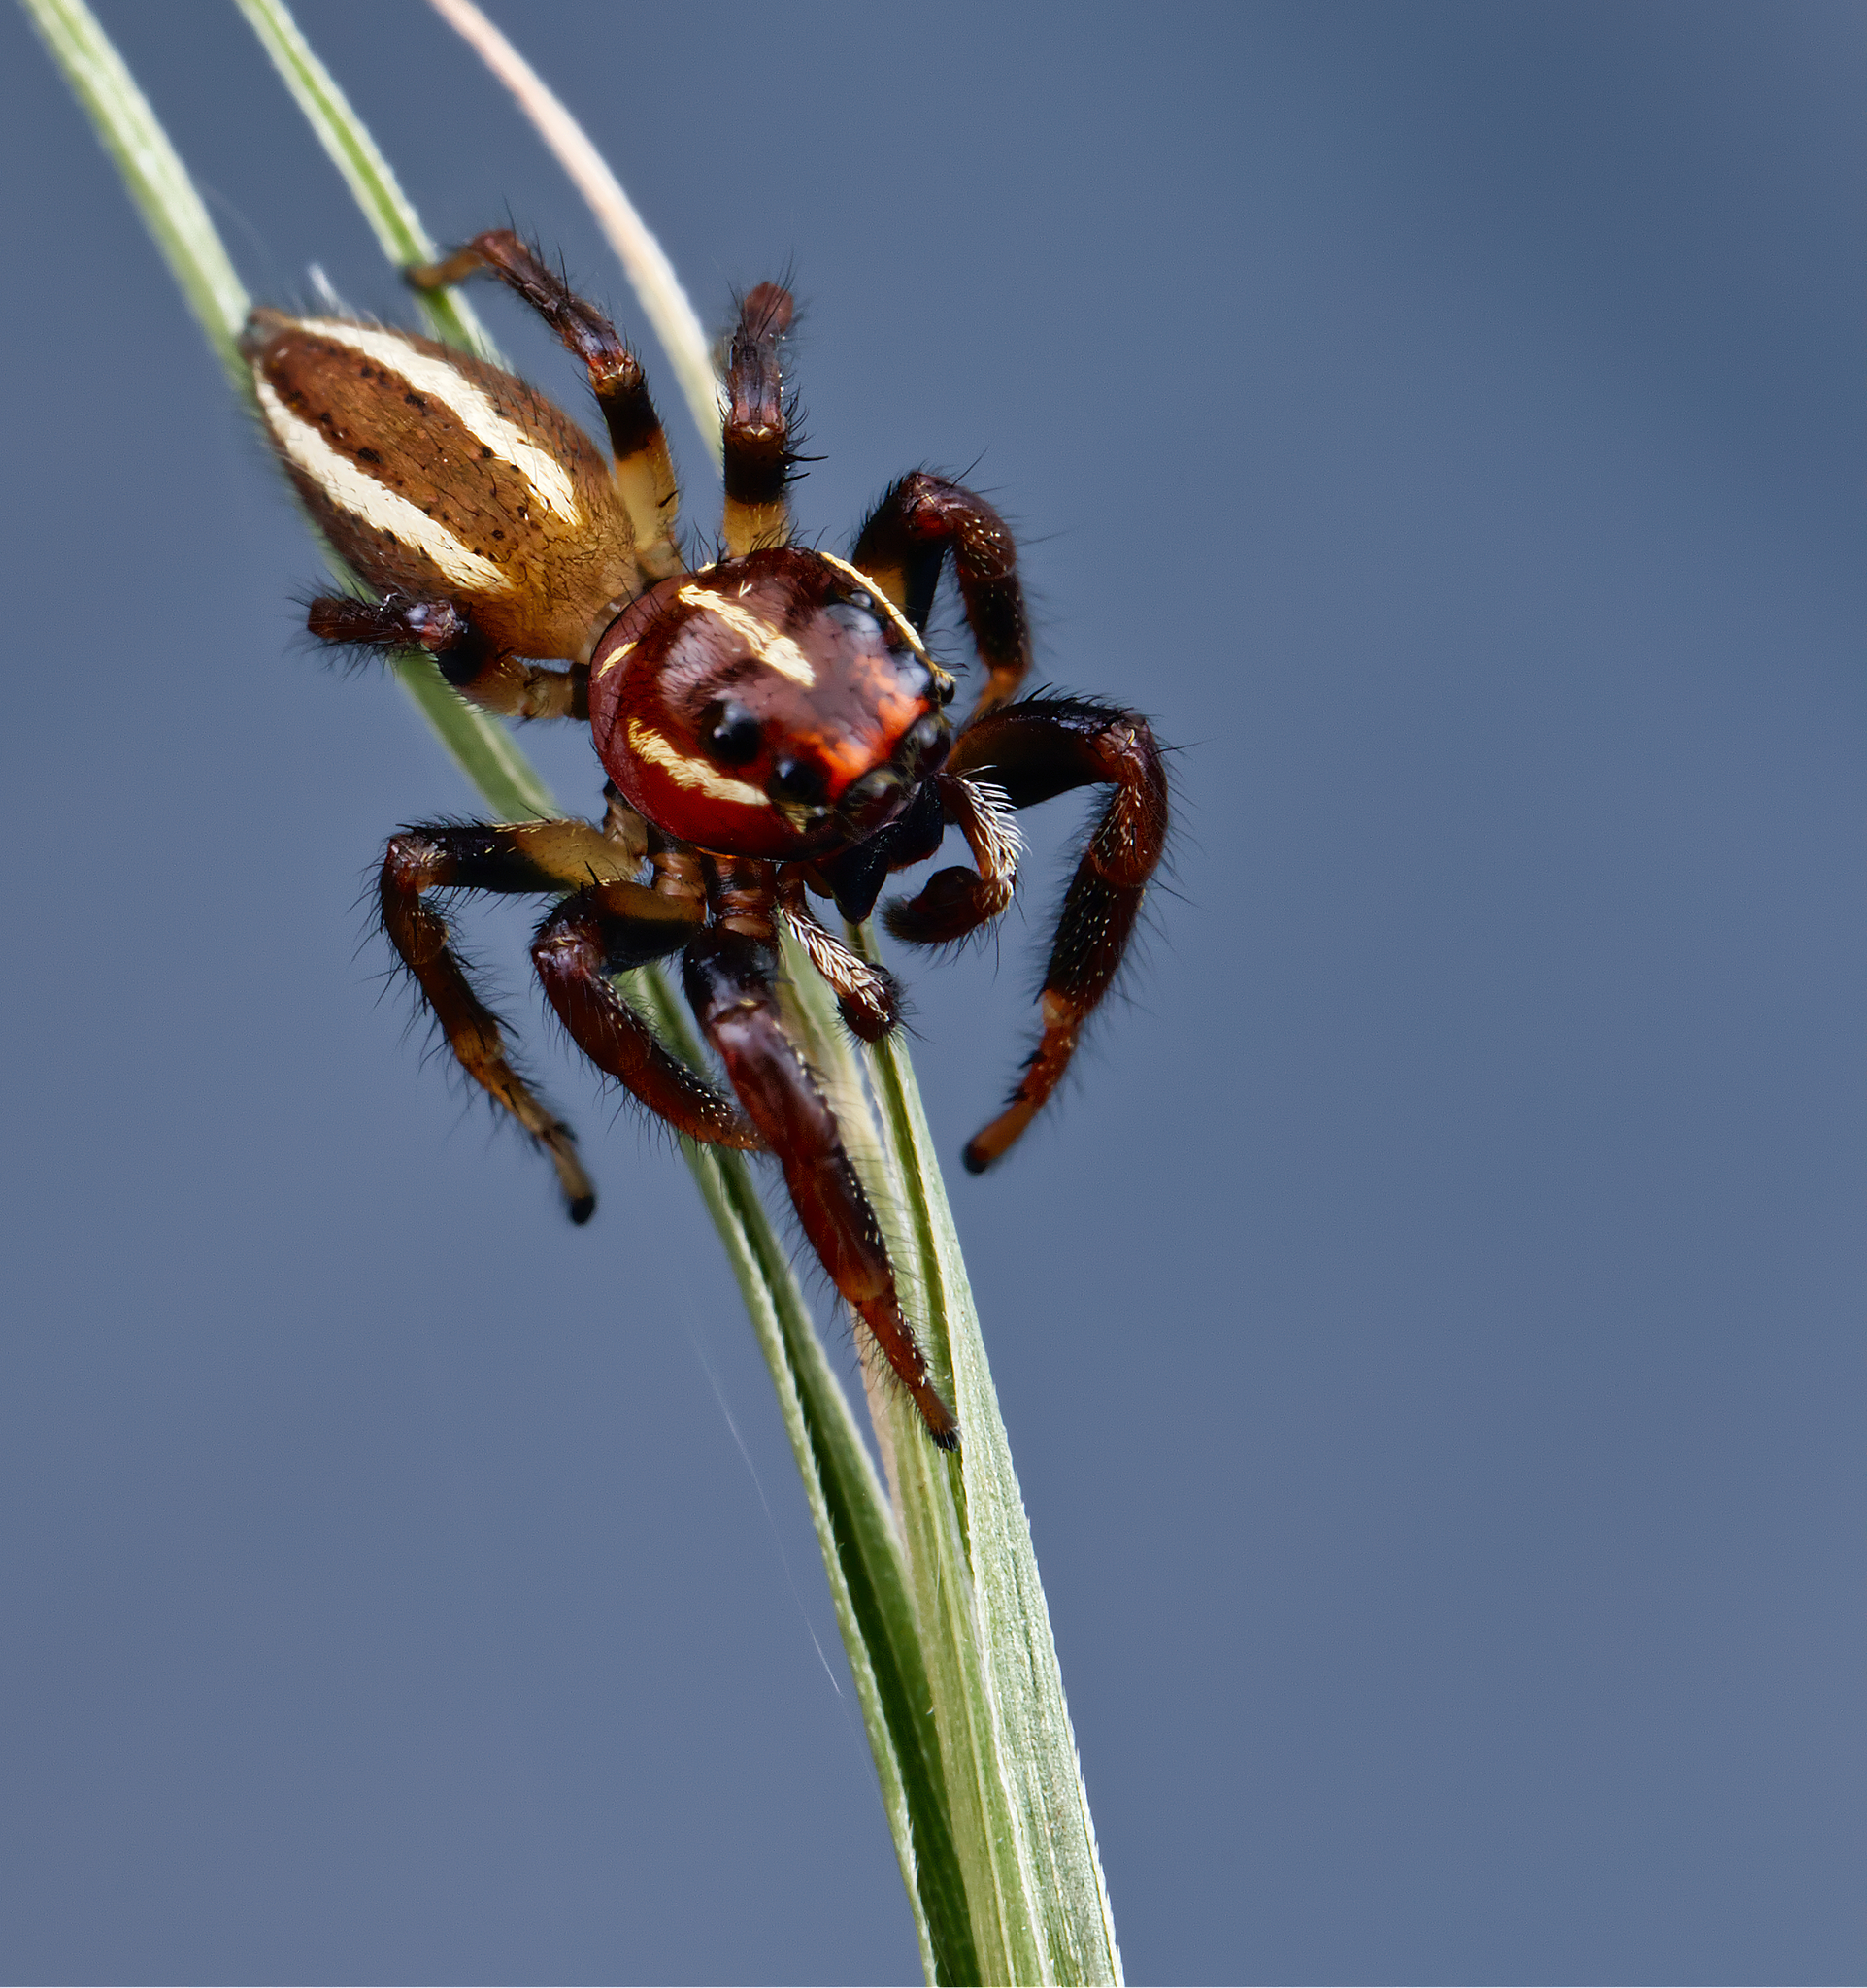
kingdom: Animalia
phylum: Arthropoda
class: Arachnida
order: Araneae
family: Salticidae
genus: Colonus
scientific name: Colonus puerperus
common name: Jumping spiders
